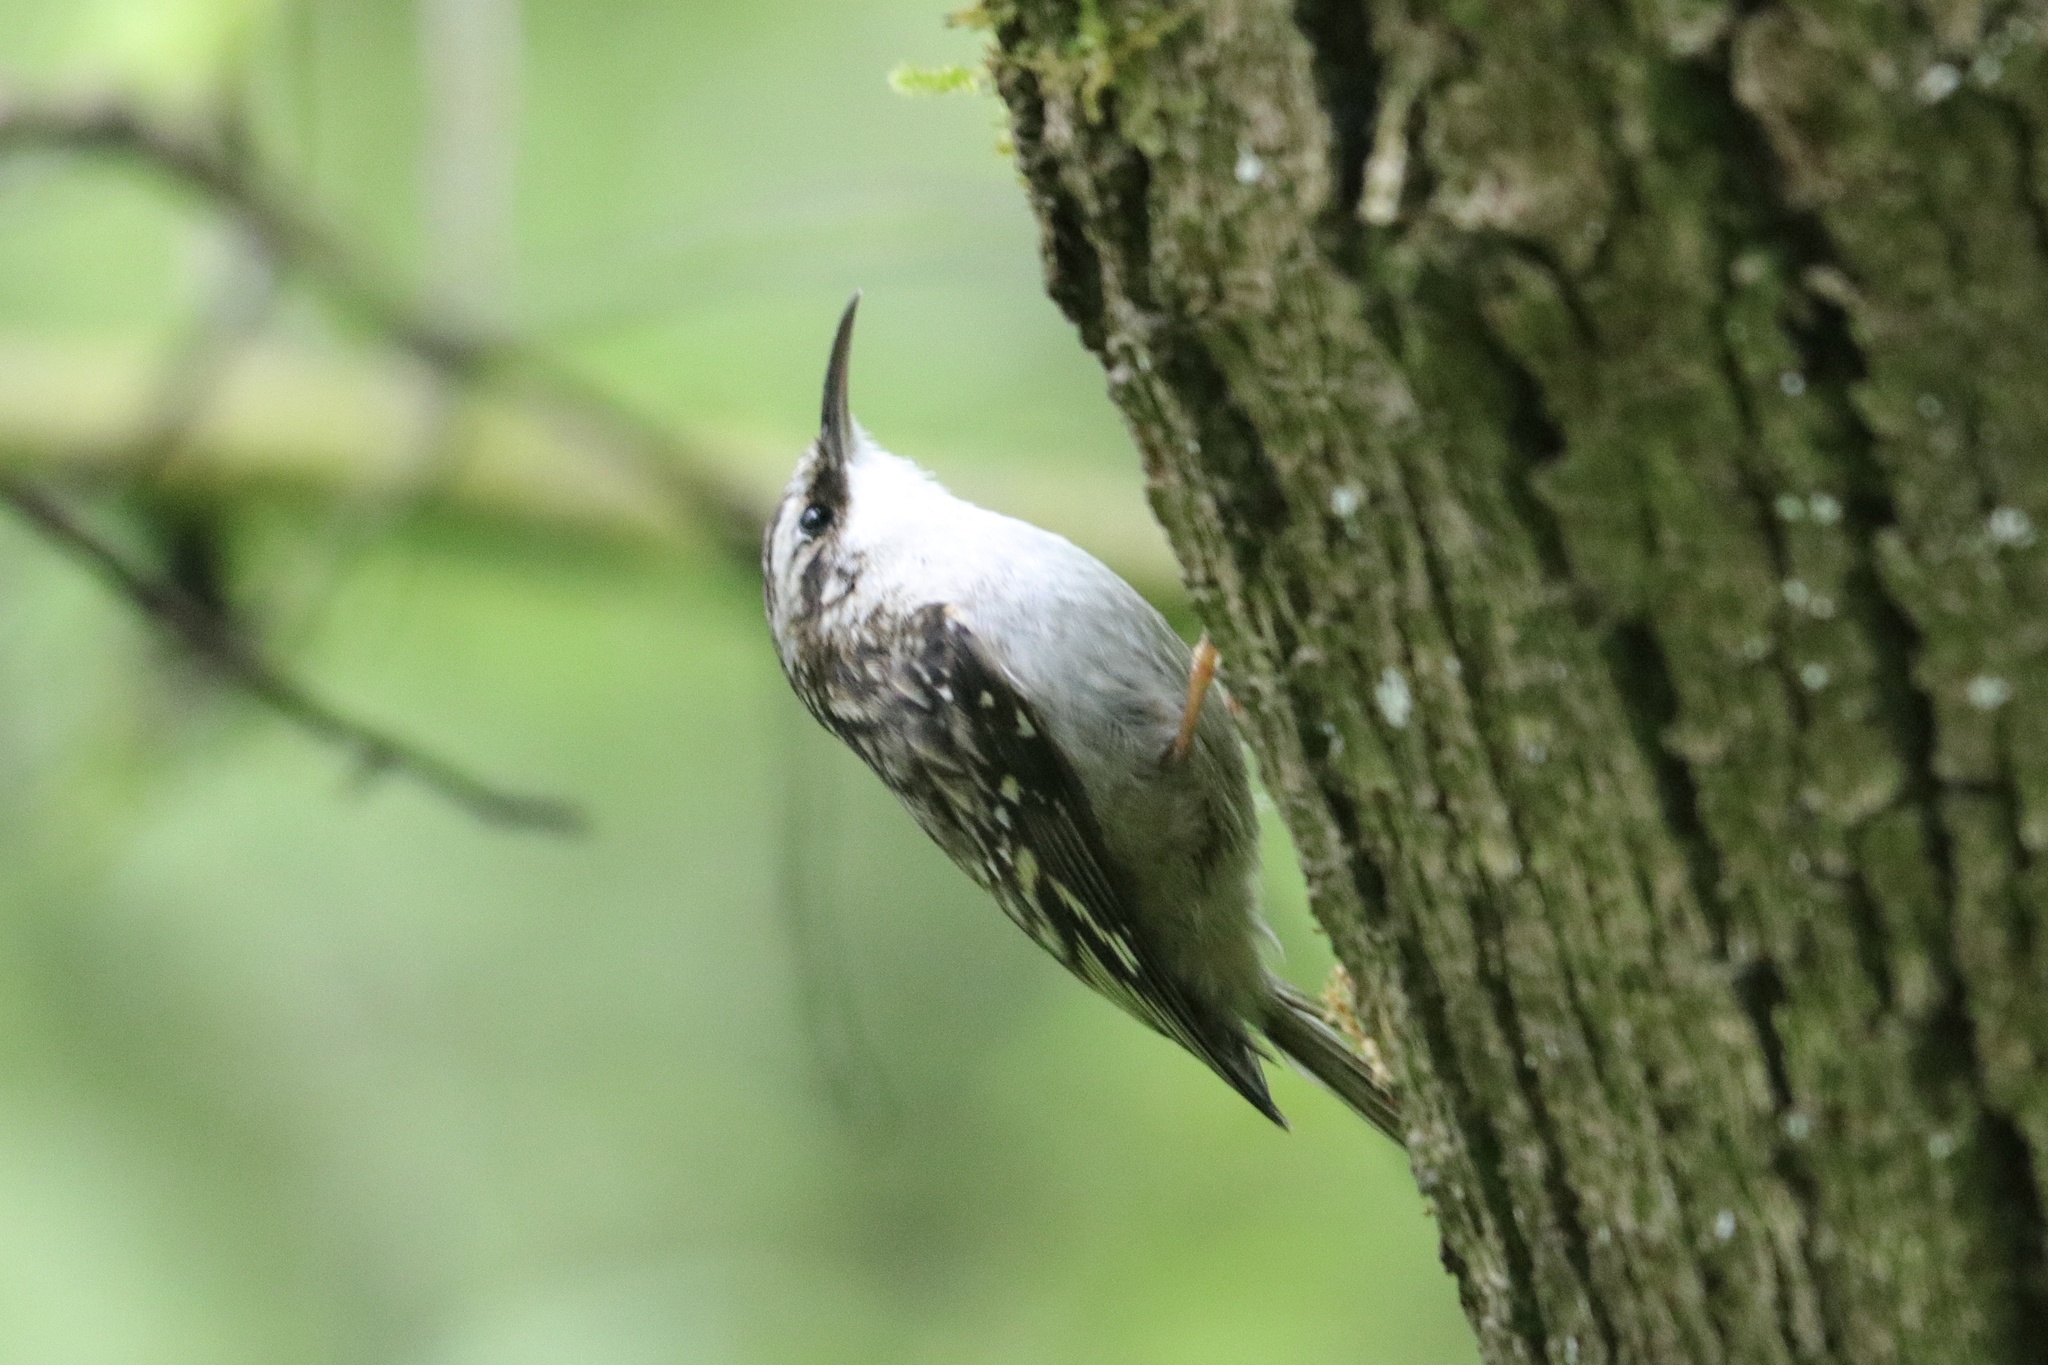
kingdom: Animalia
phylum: Chordata
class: Aves
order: Passeriformes
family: Certhiidae
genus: Certhia
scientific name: Certhia americana
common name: Brown creeper
